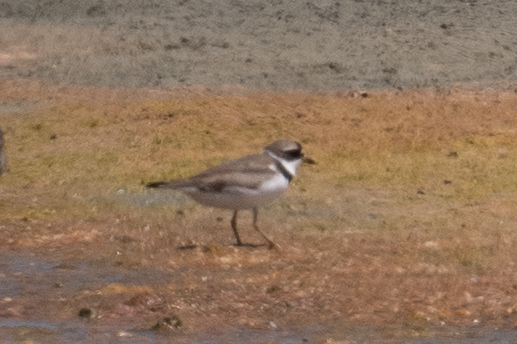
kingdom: Animalia
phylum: Chordata
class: Aves
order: Charadriiformes
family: Charadriidae
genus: Charadrius
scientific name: Charadrius semipalmatus
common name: Semipalmated plover
